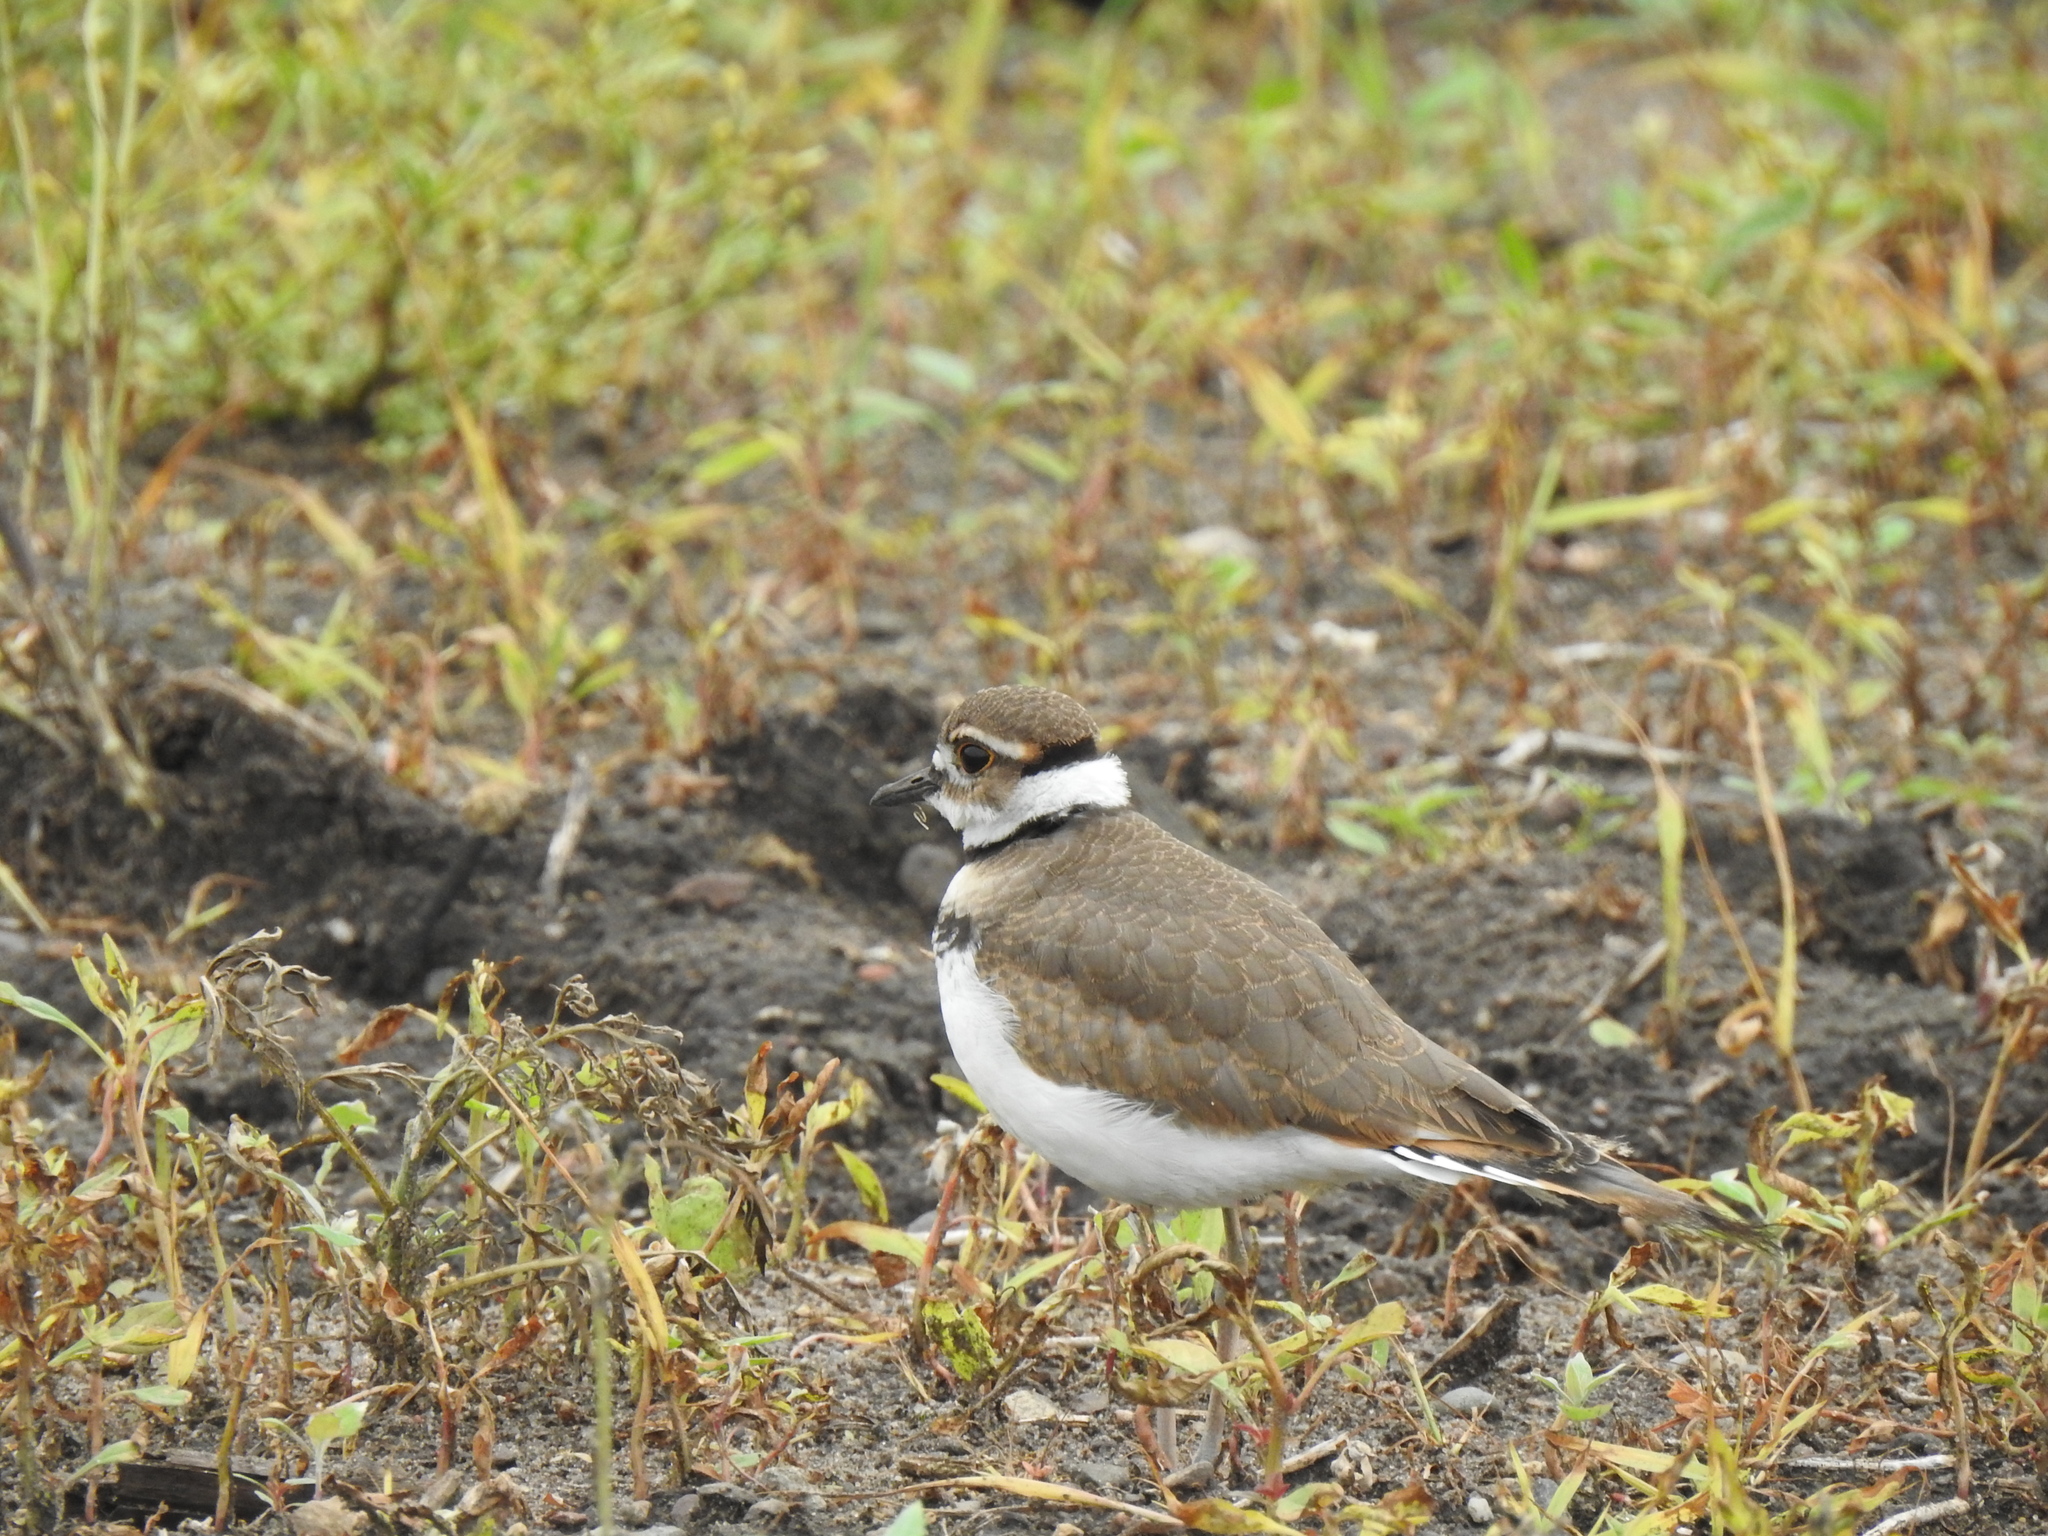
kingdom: Animalia
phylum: Chordata
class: Aves
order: Charadriiformes
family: Charadriidae
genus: Charadrius
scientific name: Charadrius vociferus
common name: Killdeer
